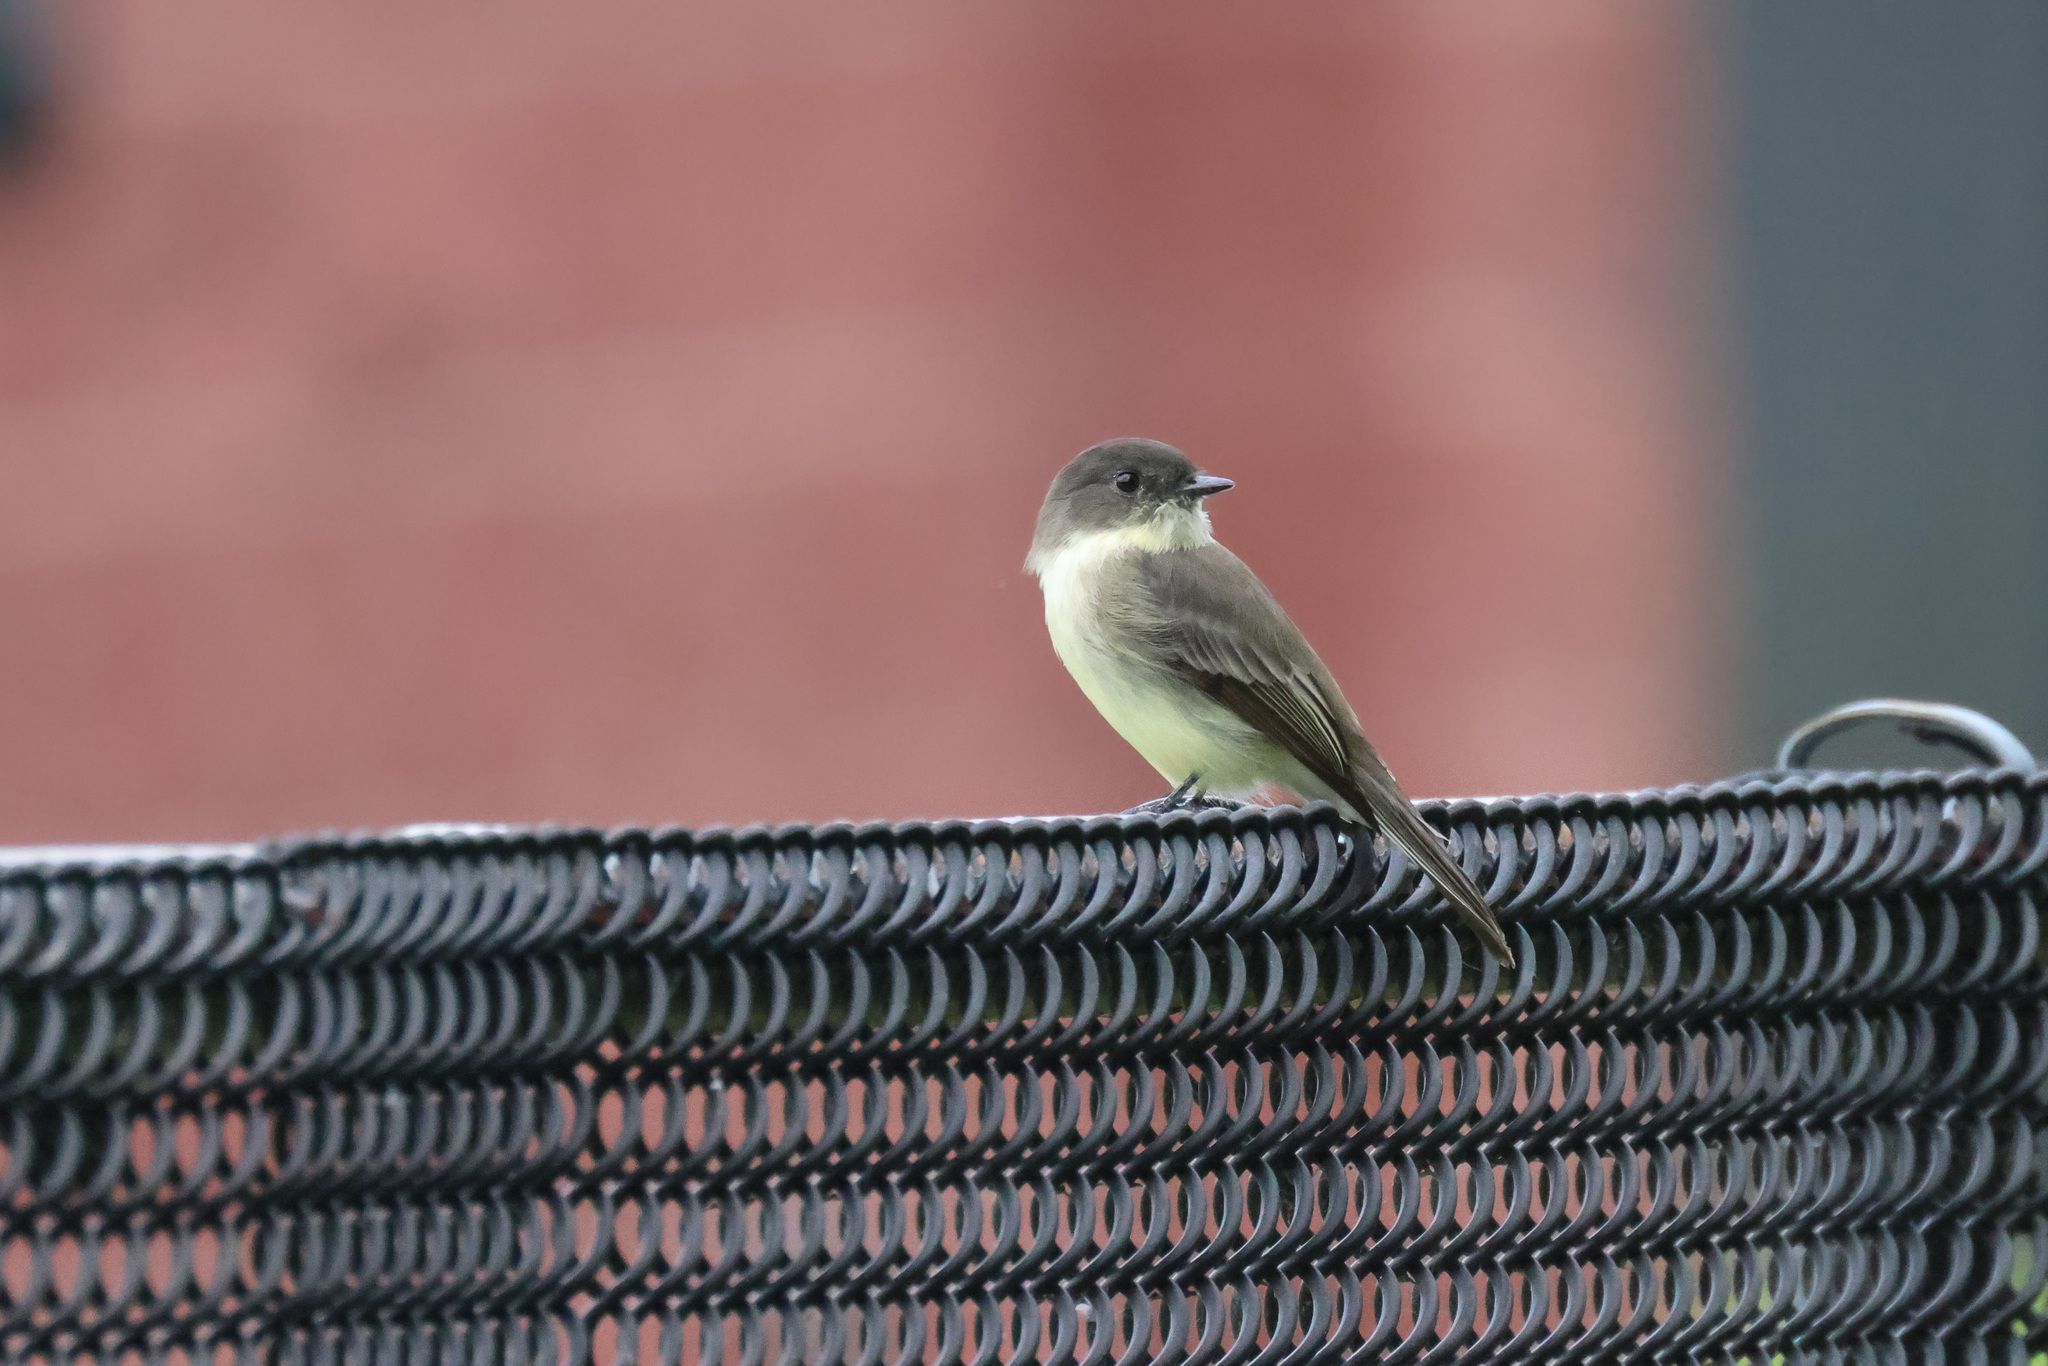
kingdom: Animalia
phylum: Chordata
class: Aves
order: Passeriformes
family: Tyrannidae
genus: Sayornis
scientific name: Sayornis phoebe
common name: Eastern phoebe
